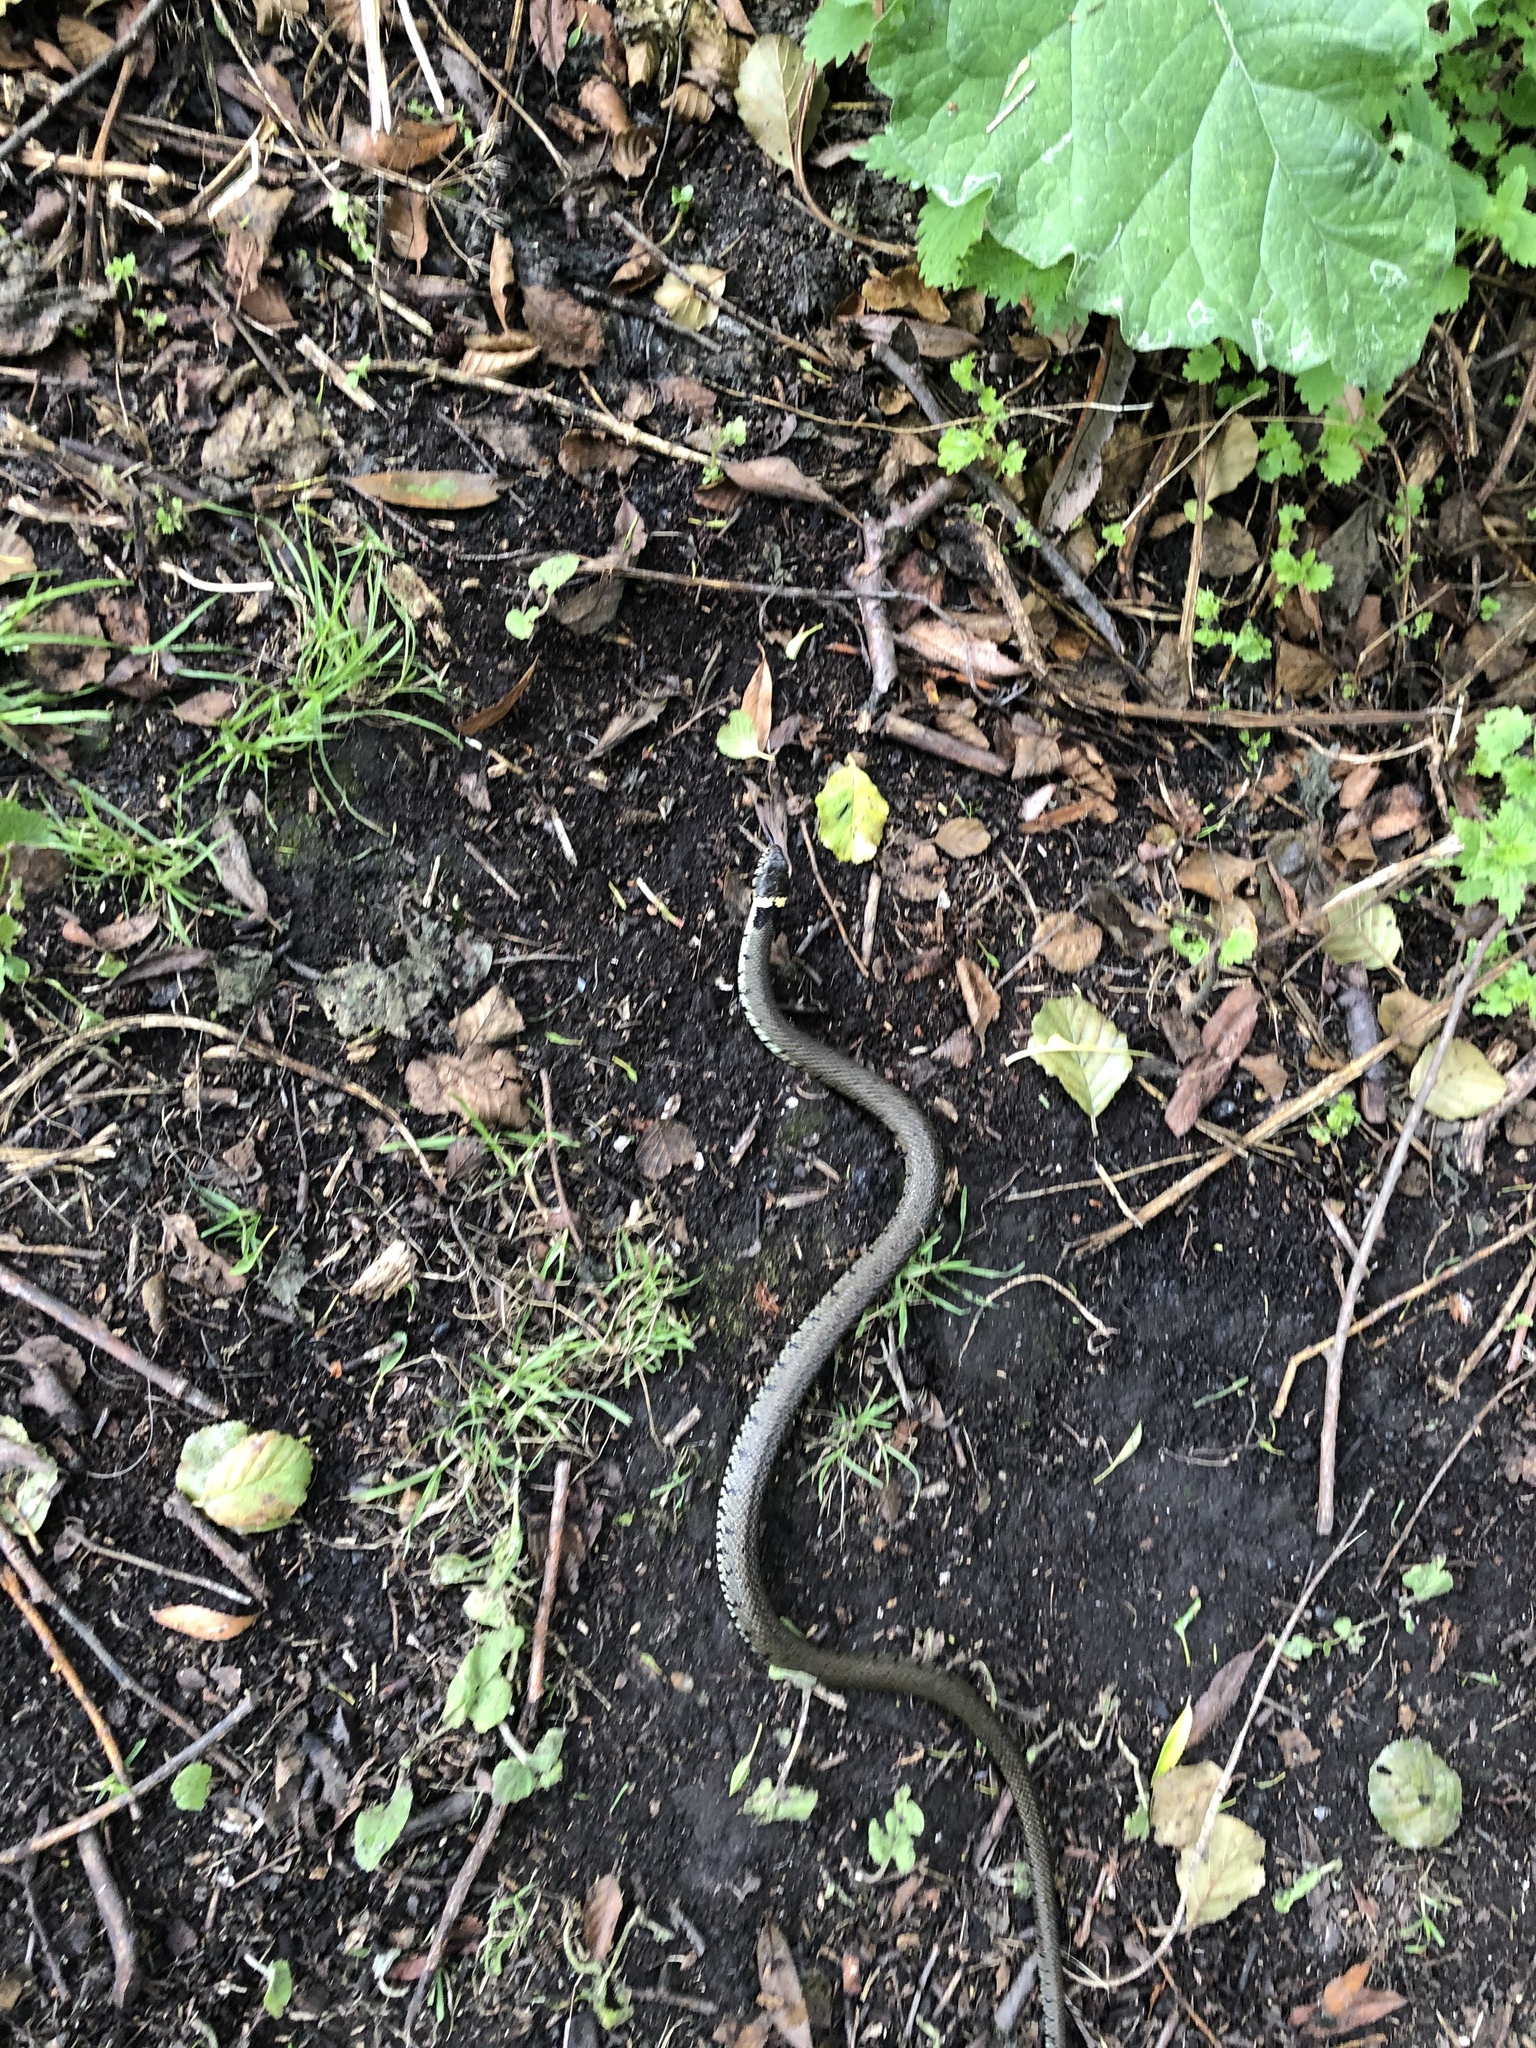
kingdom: Animalia
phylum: Chordata
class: Squamata
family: Colubridae
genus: Natrix
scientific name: Natrix helvetica
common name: Banded grass snake
